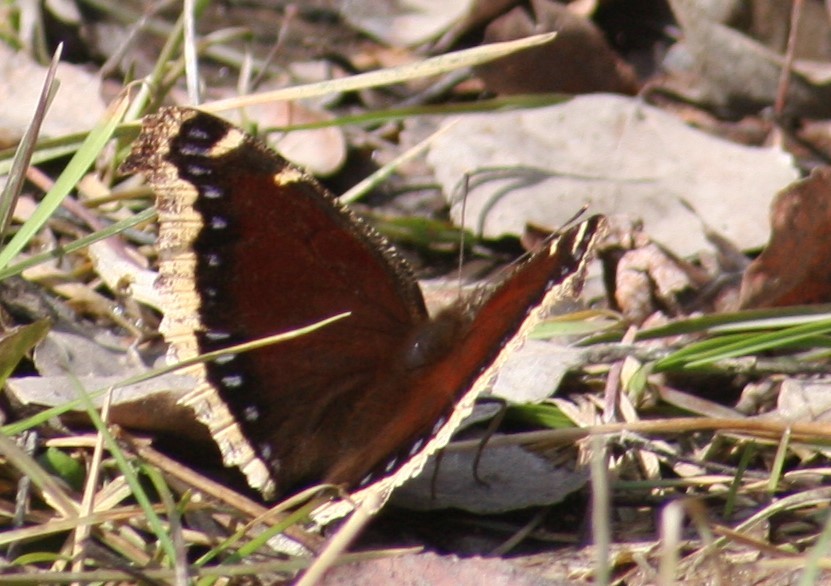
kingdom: Animalia
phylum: Arthropoda
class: Insecta
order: Lepidoptera
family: Nymphalidae
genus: Nymphalis
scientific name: Nymphalis antiopa
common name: Camberwell beauty
